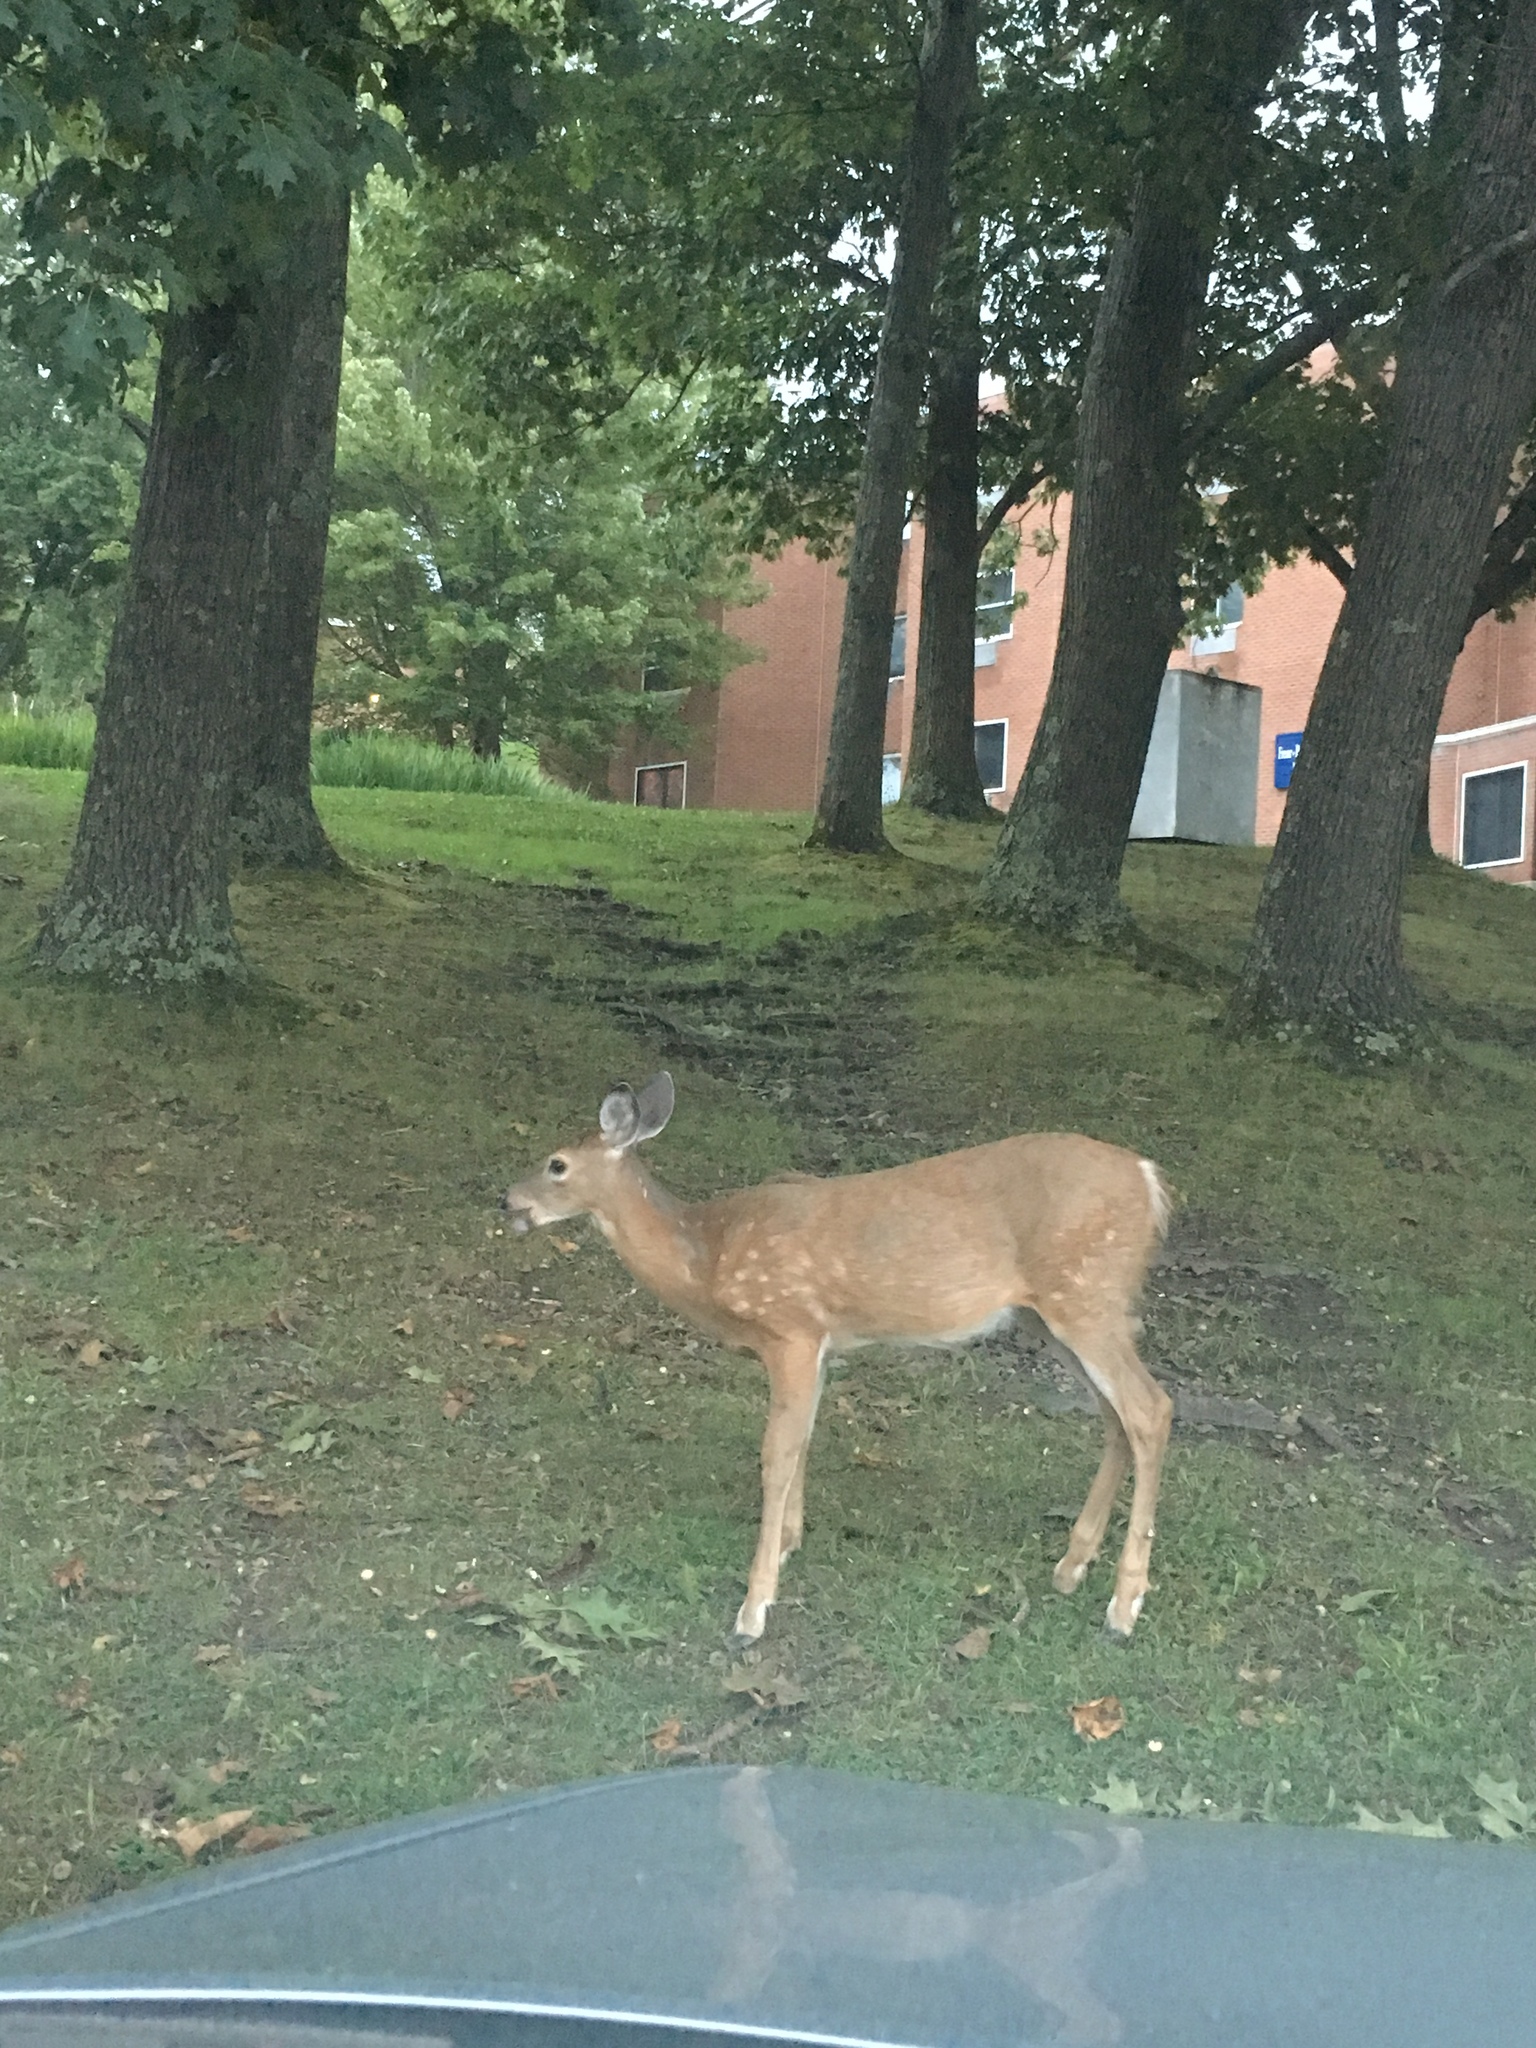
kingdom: Animalia
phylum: Chordata
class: Mammalia
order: Artiodactyla
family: Cervidae
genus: Odocoileus
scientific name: Odocoileus virginianus
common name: White-tailed deer
